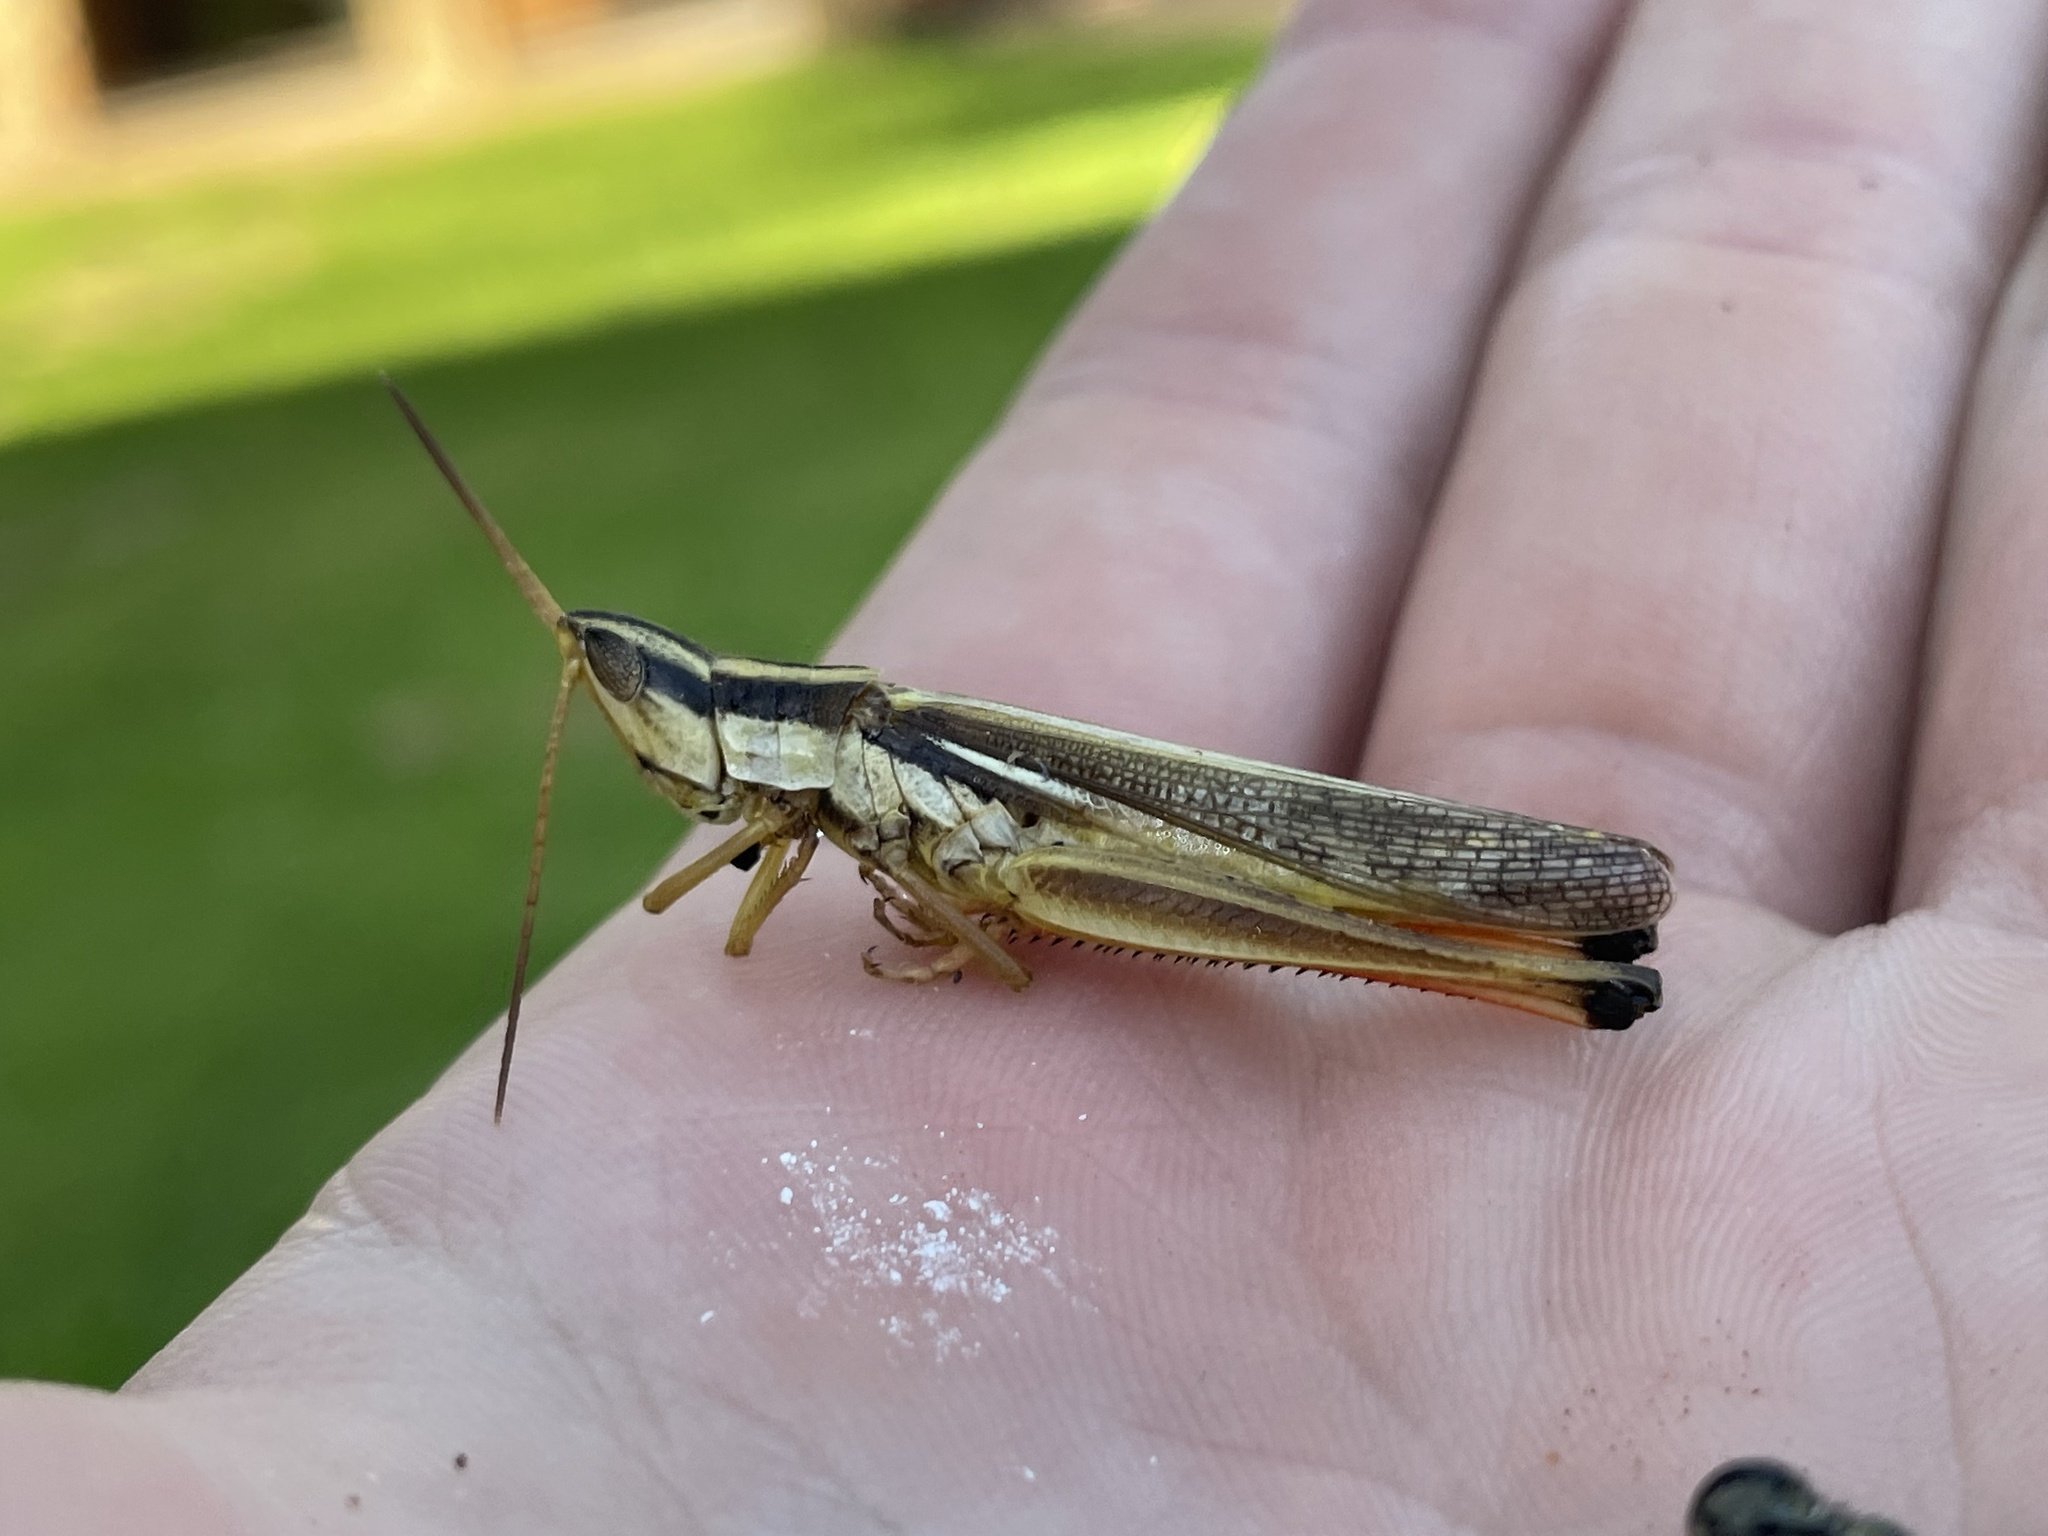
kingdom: Animalia
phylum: Arthropoda
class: Insecta
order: Orthoptera
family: Acrididae
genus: Mermiria
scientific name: Mermiria bivittata
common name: Two-striped mermiria grasshopper
